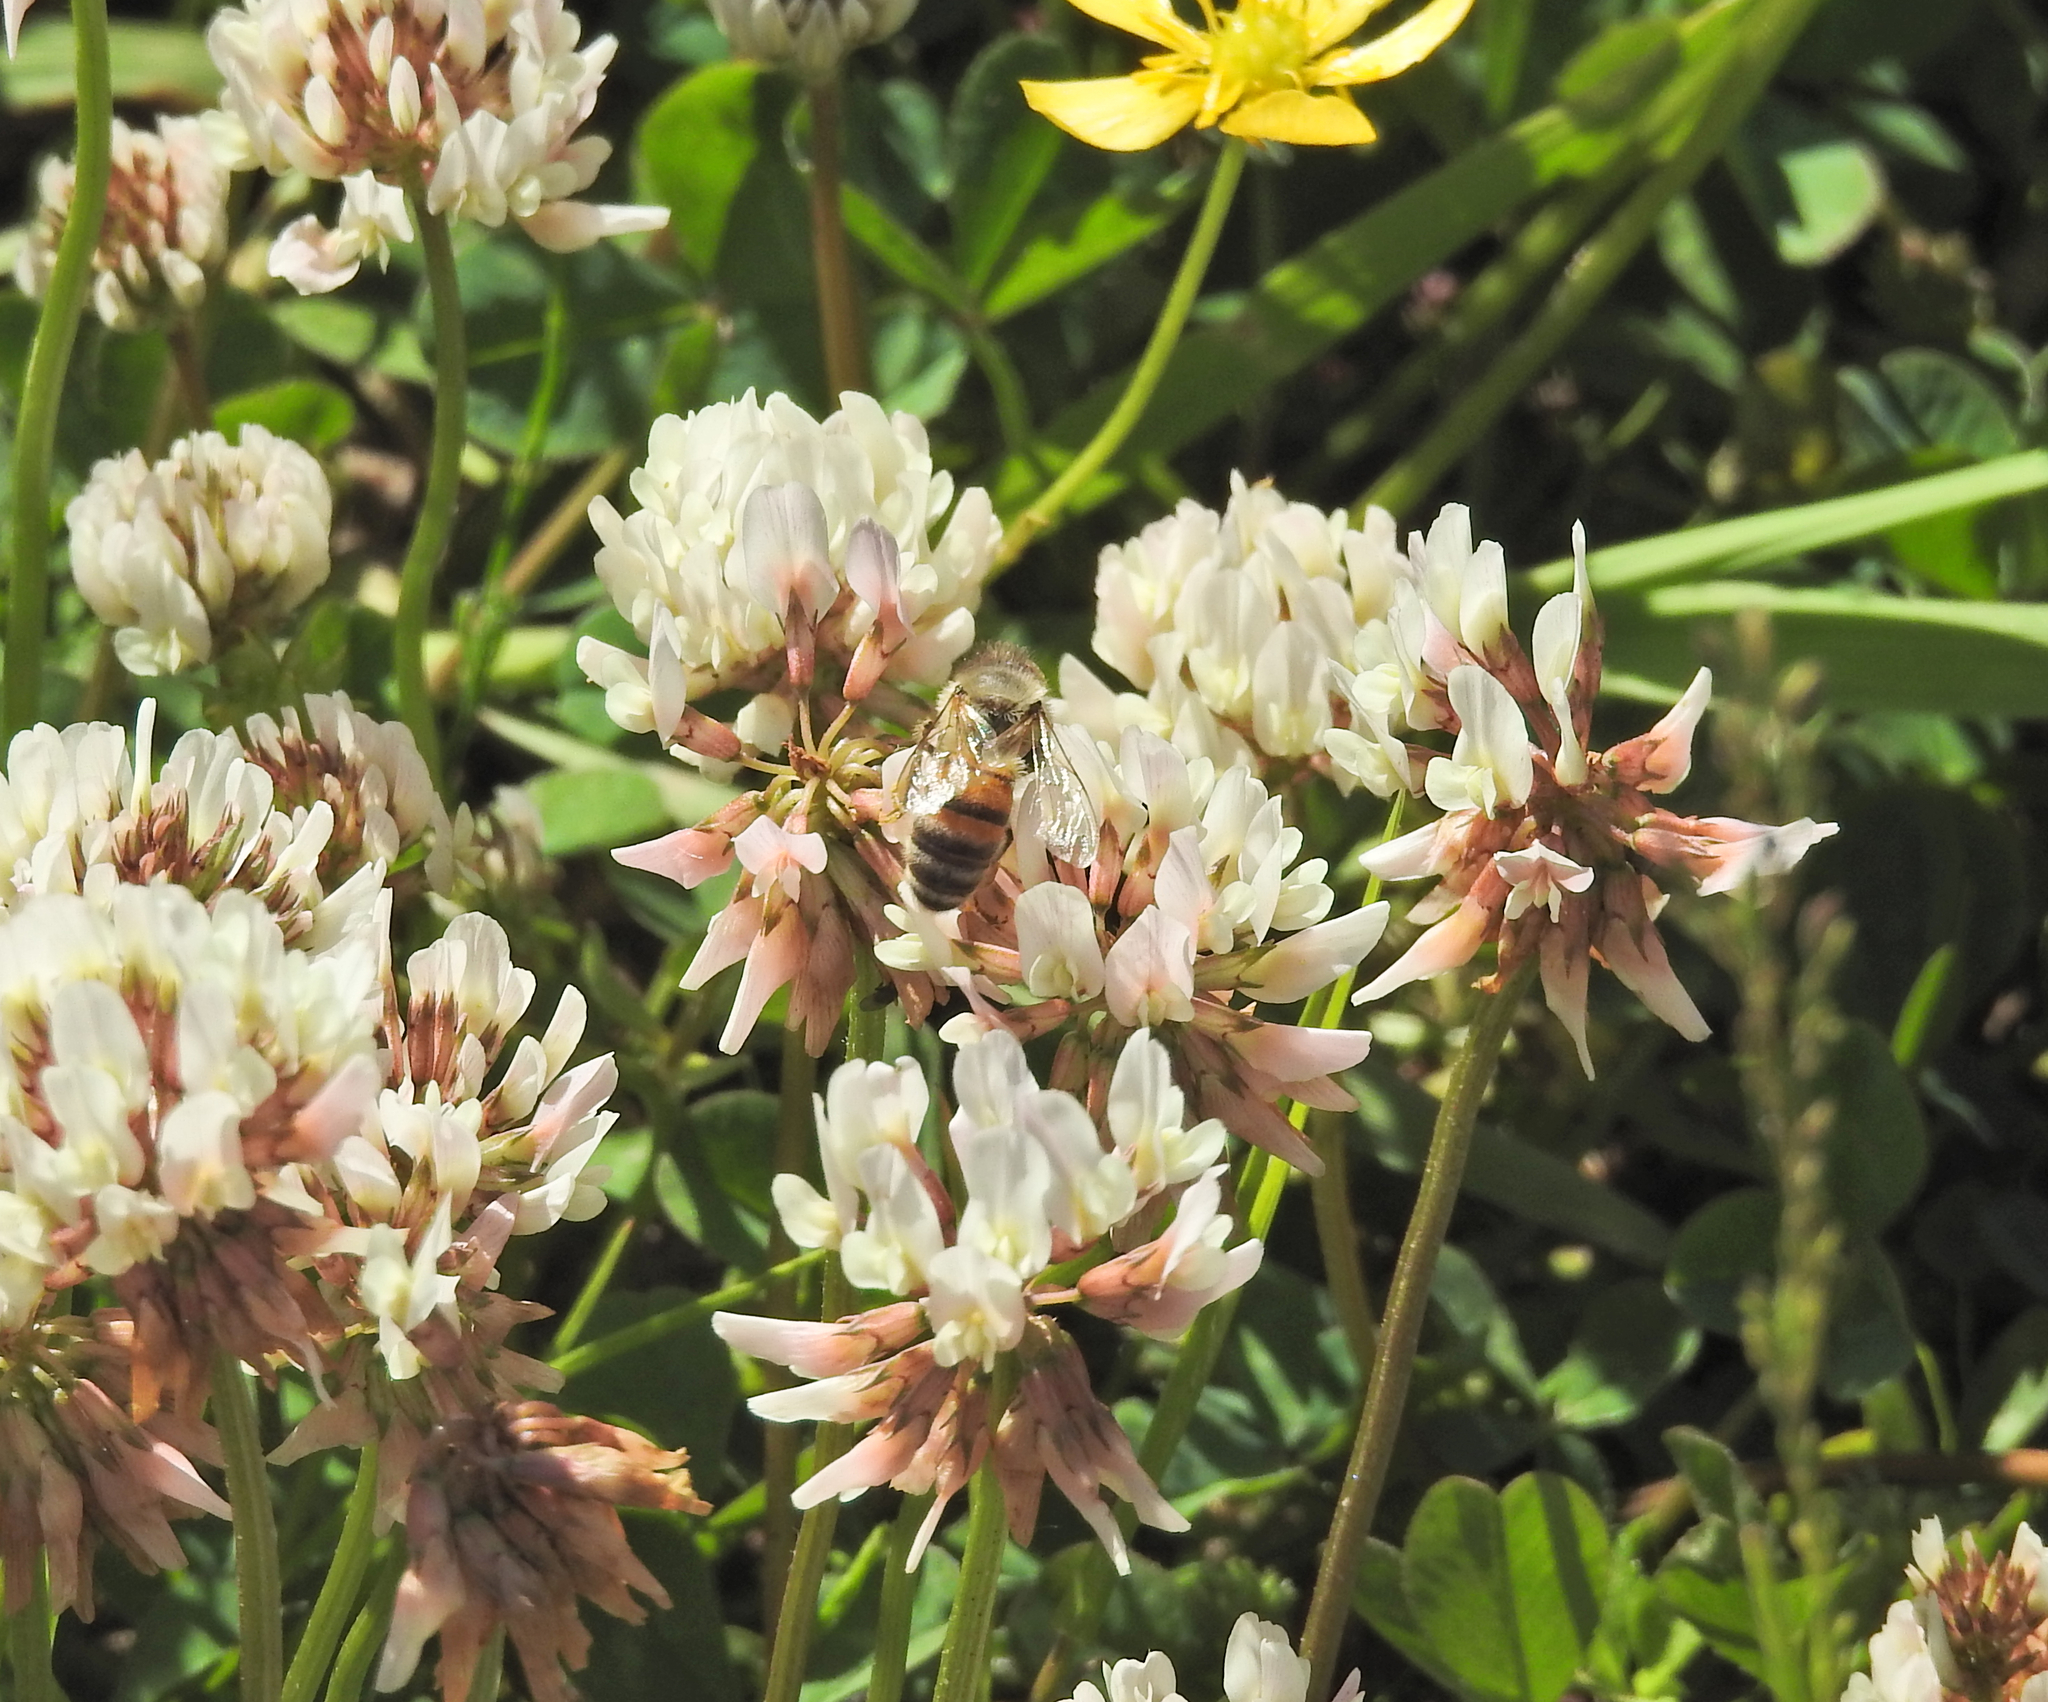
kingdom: Animalia
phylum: Arthropoda
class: Insecta
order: Hymenoptera
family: Apidae
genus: Apis
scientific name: Apis mellifera
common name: Honey bee
